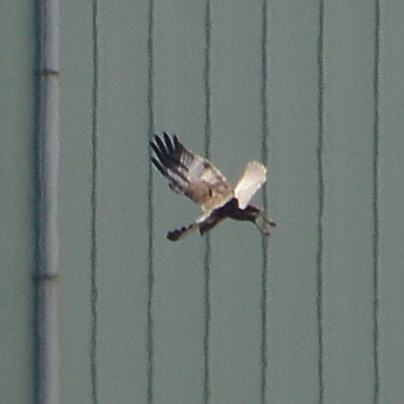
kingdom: Animalia
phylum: Chordata
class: Aves
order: Accipitriformes
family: Accipitridae
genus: Circus
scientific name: Circus aeruginosus
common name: Western marsh harrier
